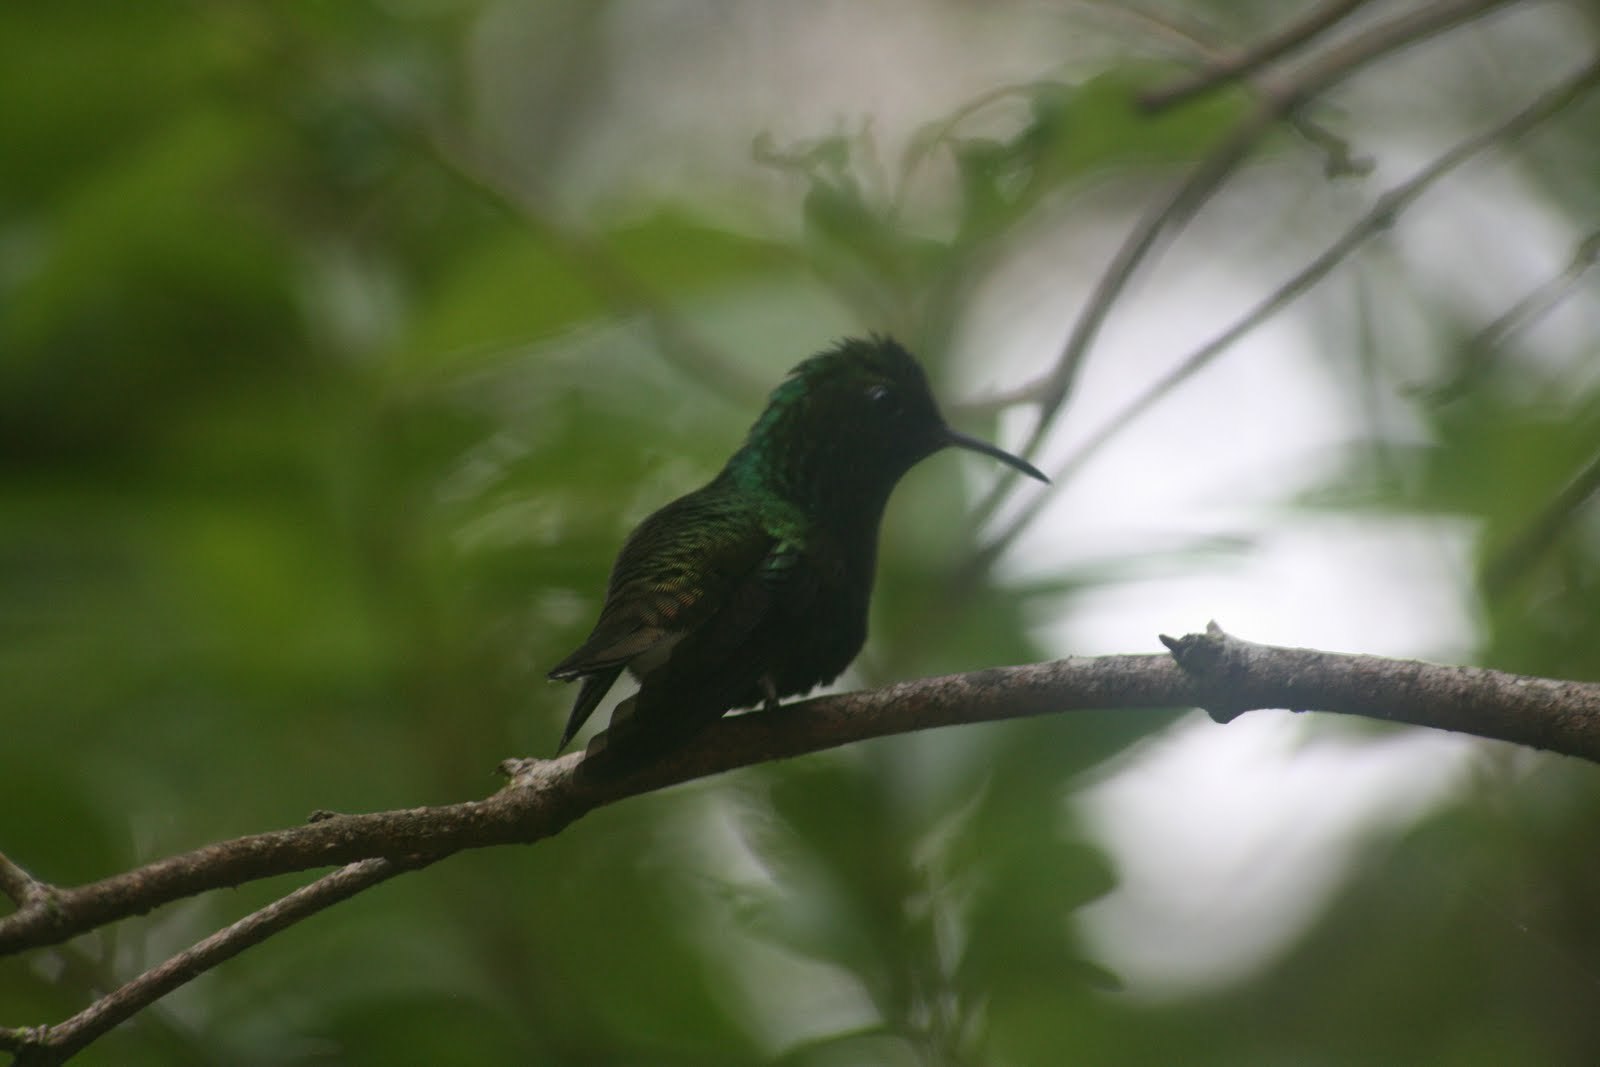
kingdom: Animalia
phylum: Chordata
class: Aves
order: Apodiformes
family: Trochilidae
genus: Microchera
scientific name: Microchera cupreiceps
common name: Coppery-headed emerald
